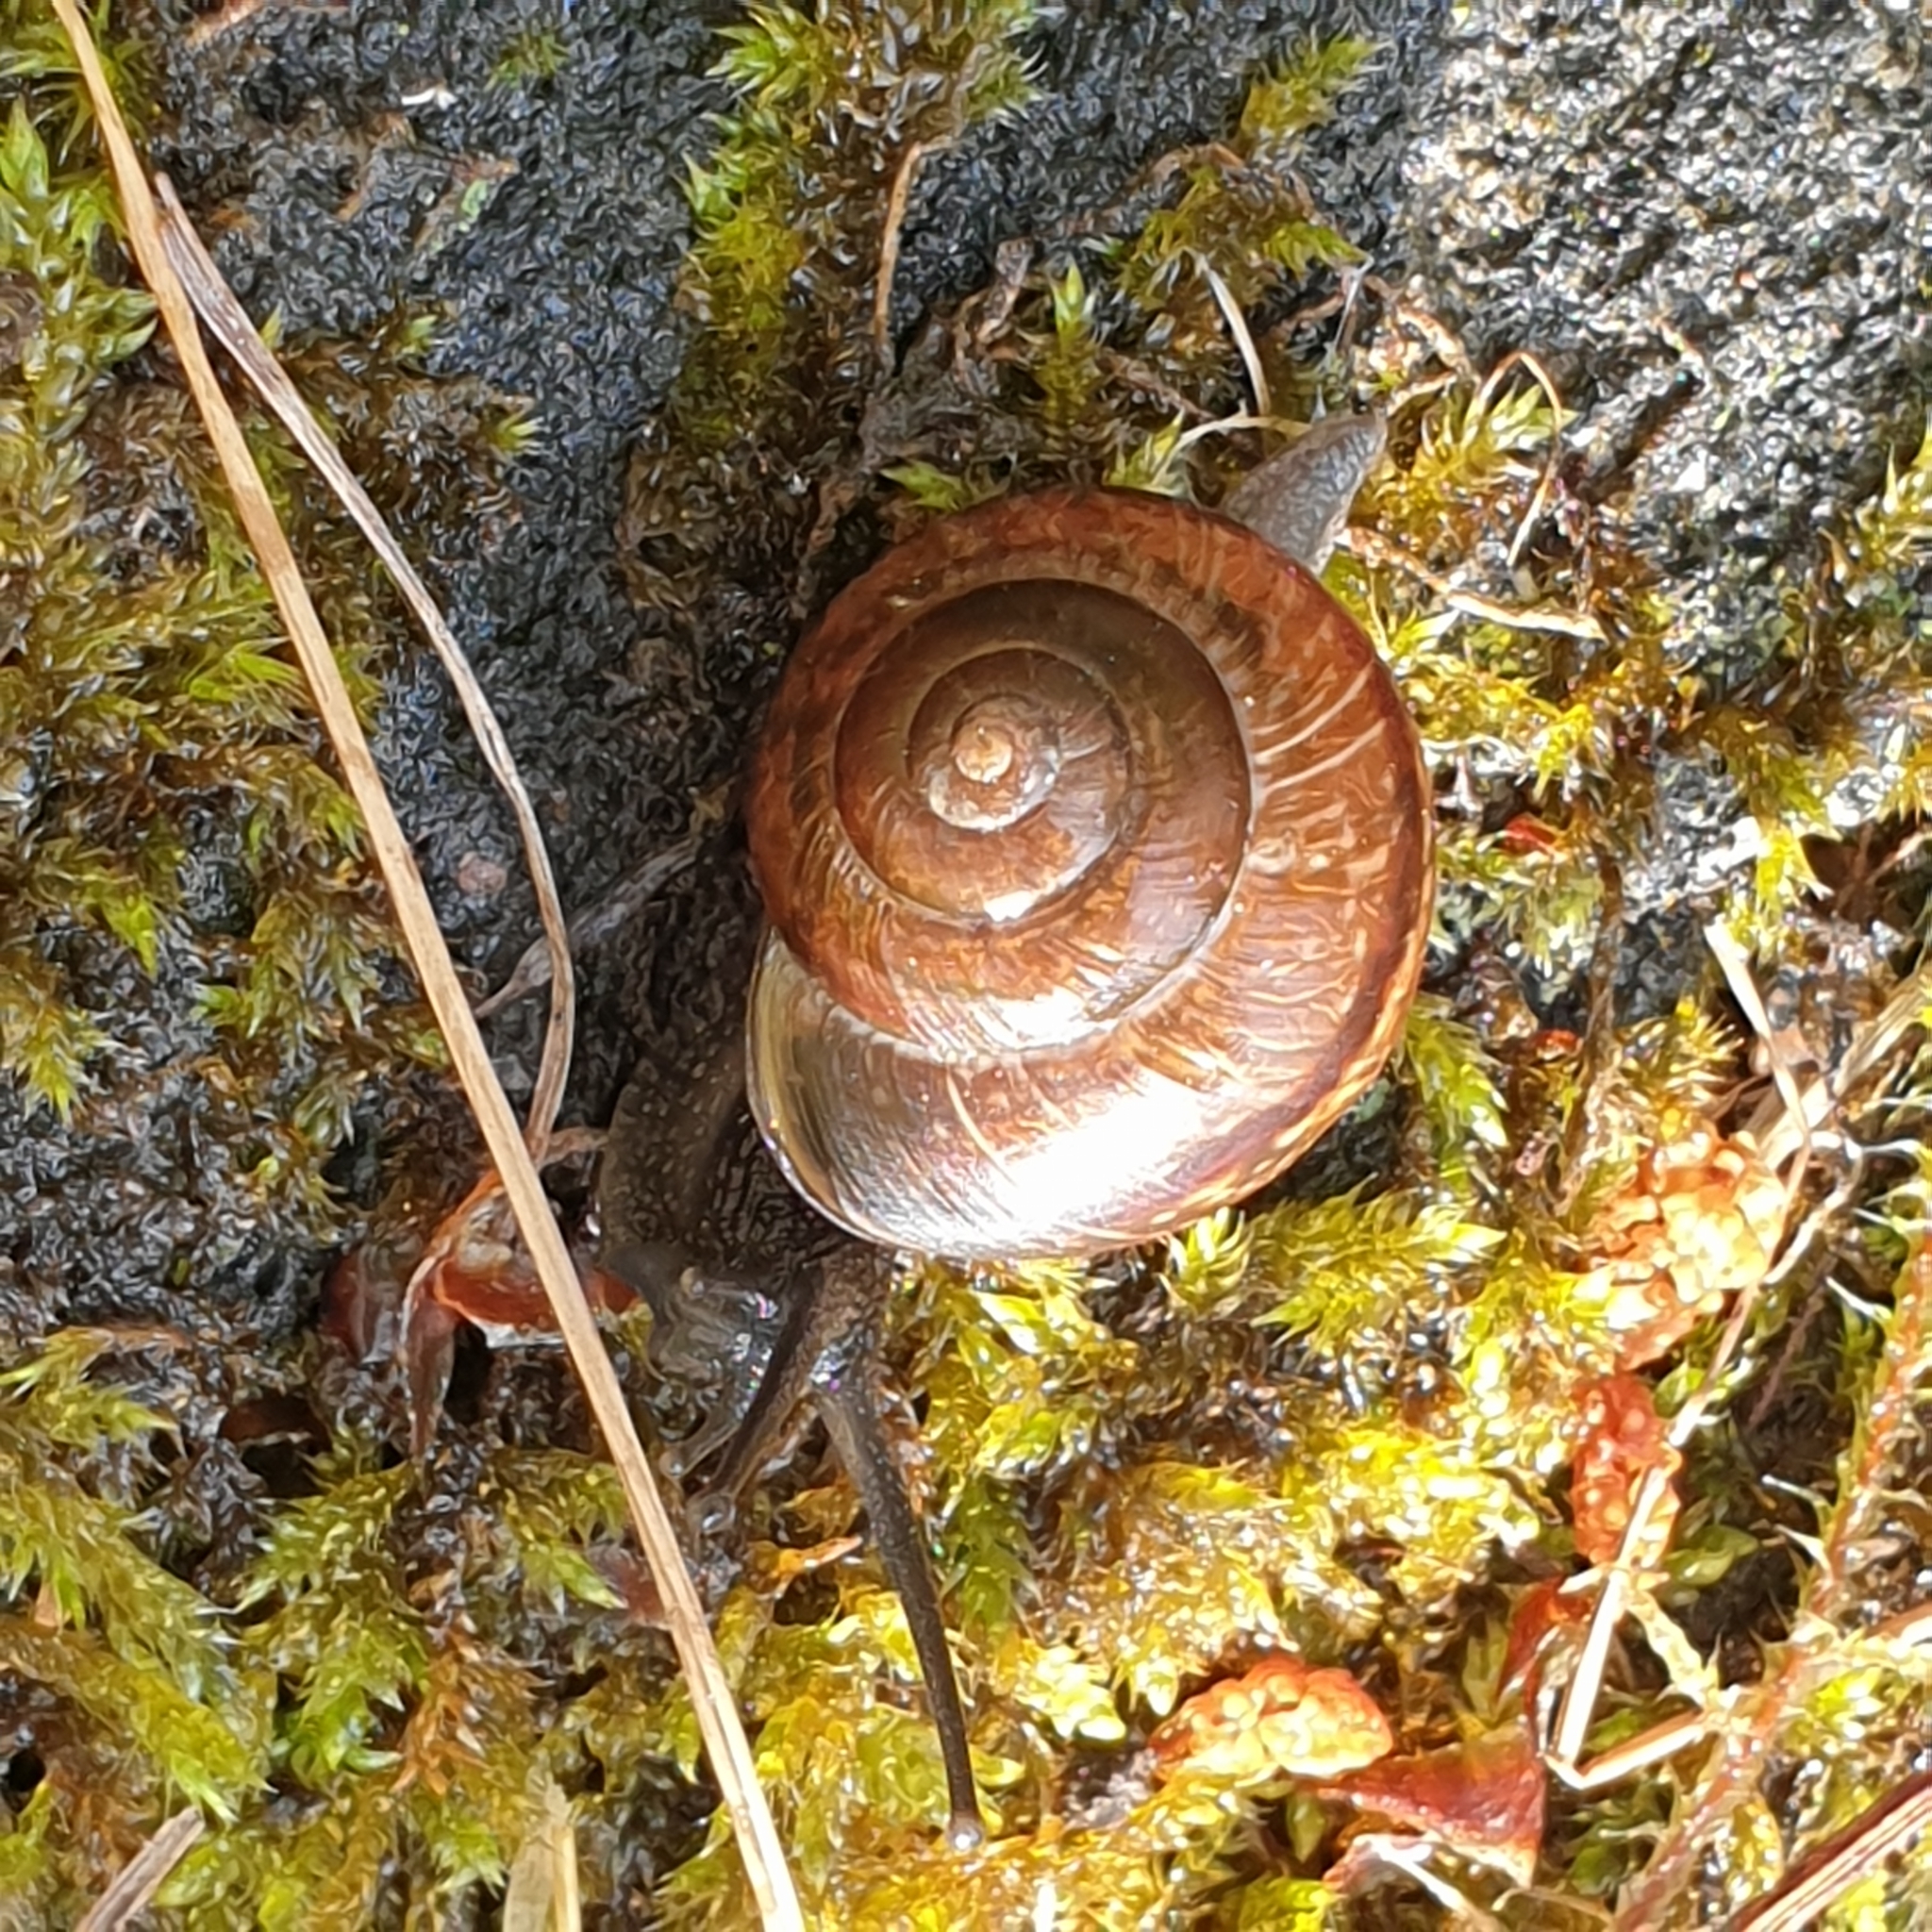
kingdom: Animalia
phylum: Mollusca
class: Gastropoda
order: Stylommatophora
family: Helicidae
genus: Arianta
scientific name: Arianta arbustorum
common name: Copse snail
